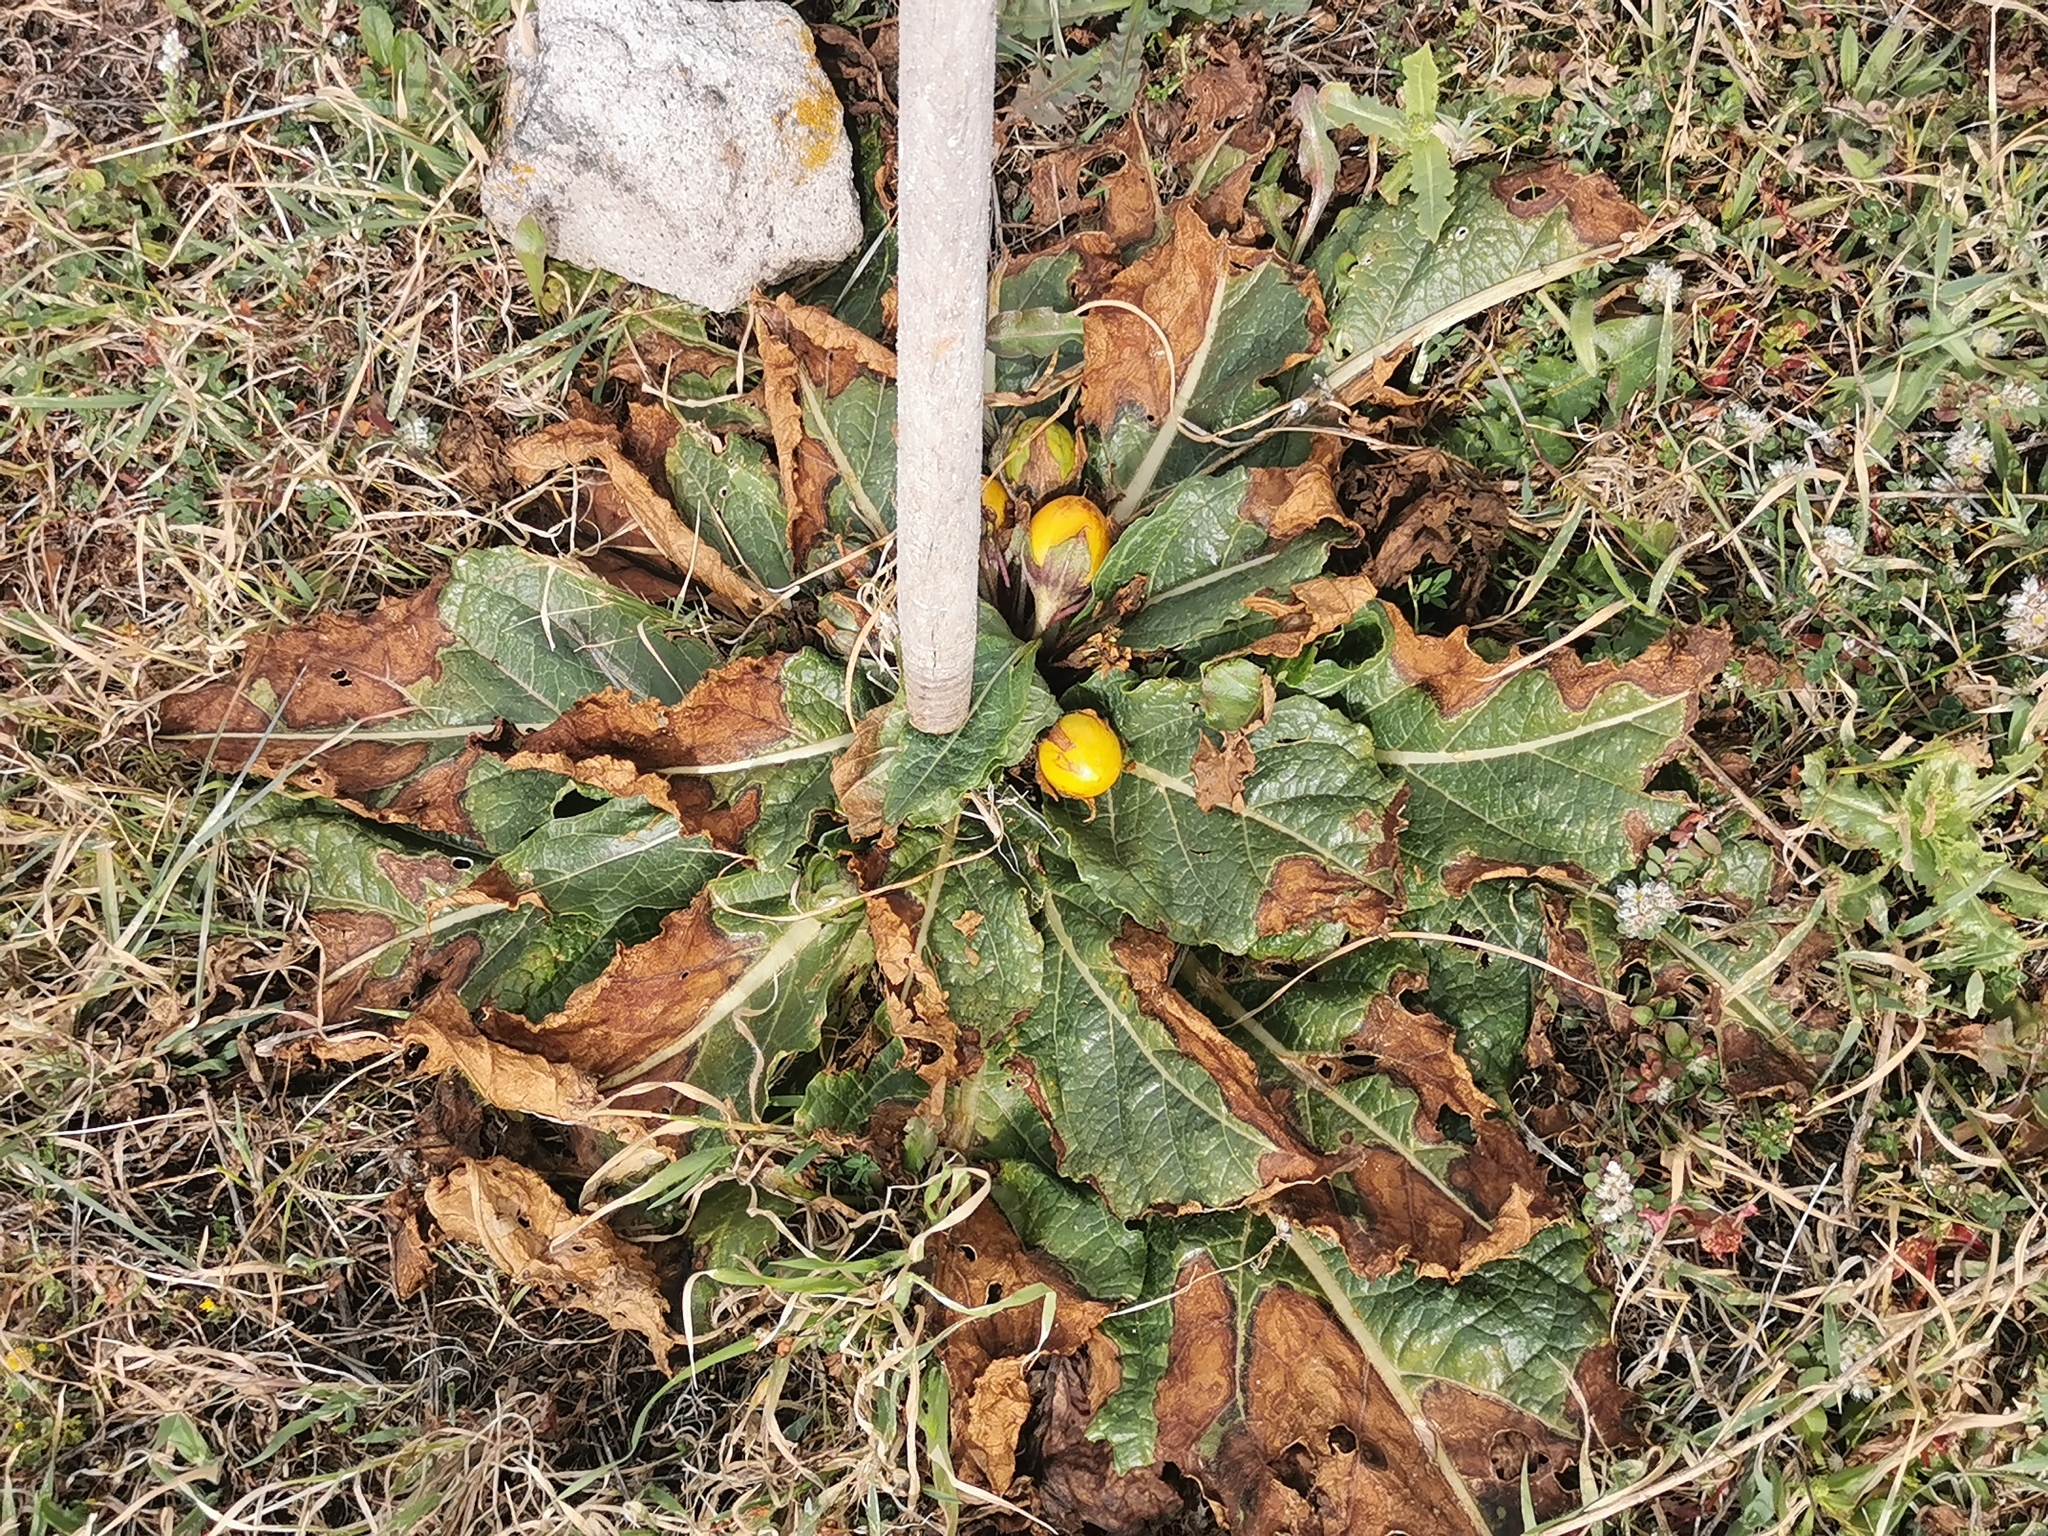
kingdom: Plantae
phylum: Tracheophyta
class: Magnoliopsida
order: Solanales
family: Solanaceae
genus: Mandragora
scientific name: Mandragora officinarum
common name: Mandrake
